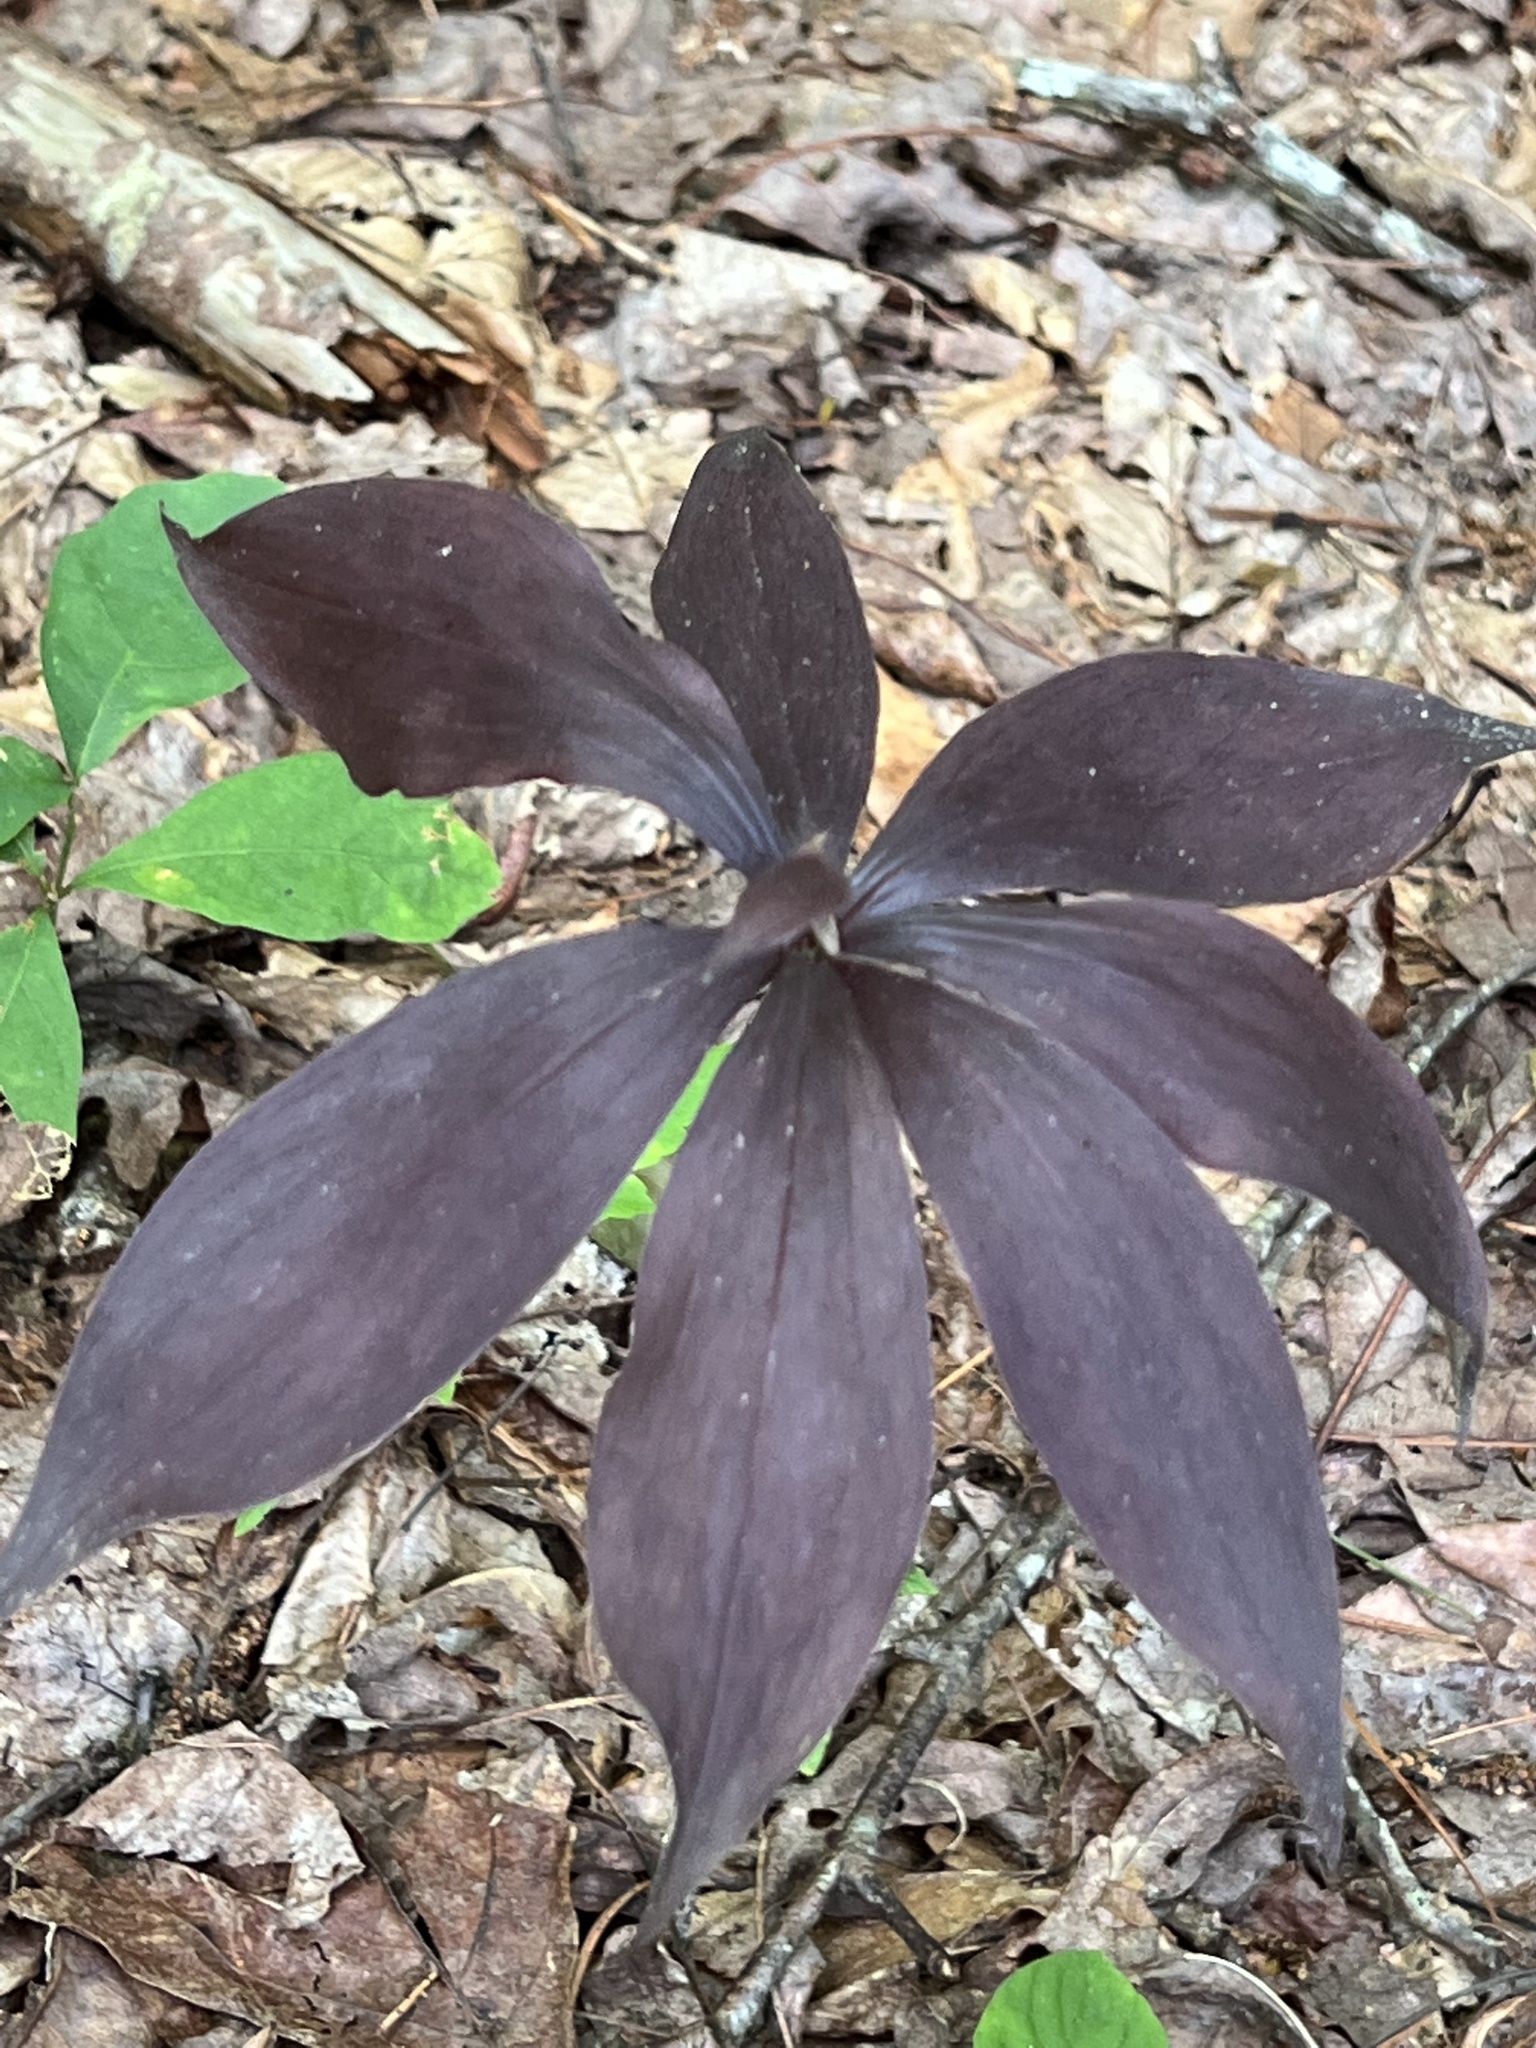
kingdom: Plantae
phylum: Tracheophyta
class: Liliopsida
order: Liliales
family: Liliaceae
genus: Medeola
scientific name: Medeola virginiana
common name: Indian cucumber-root
